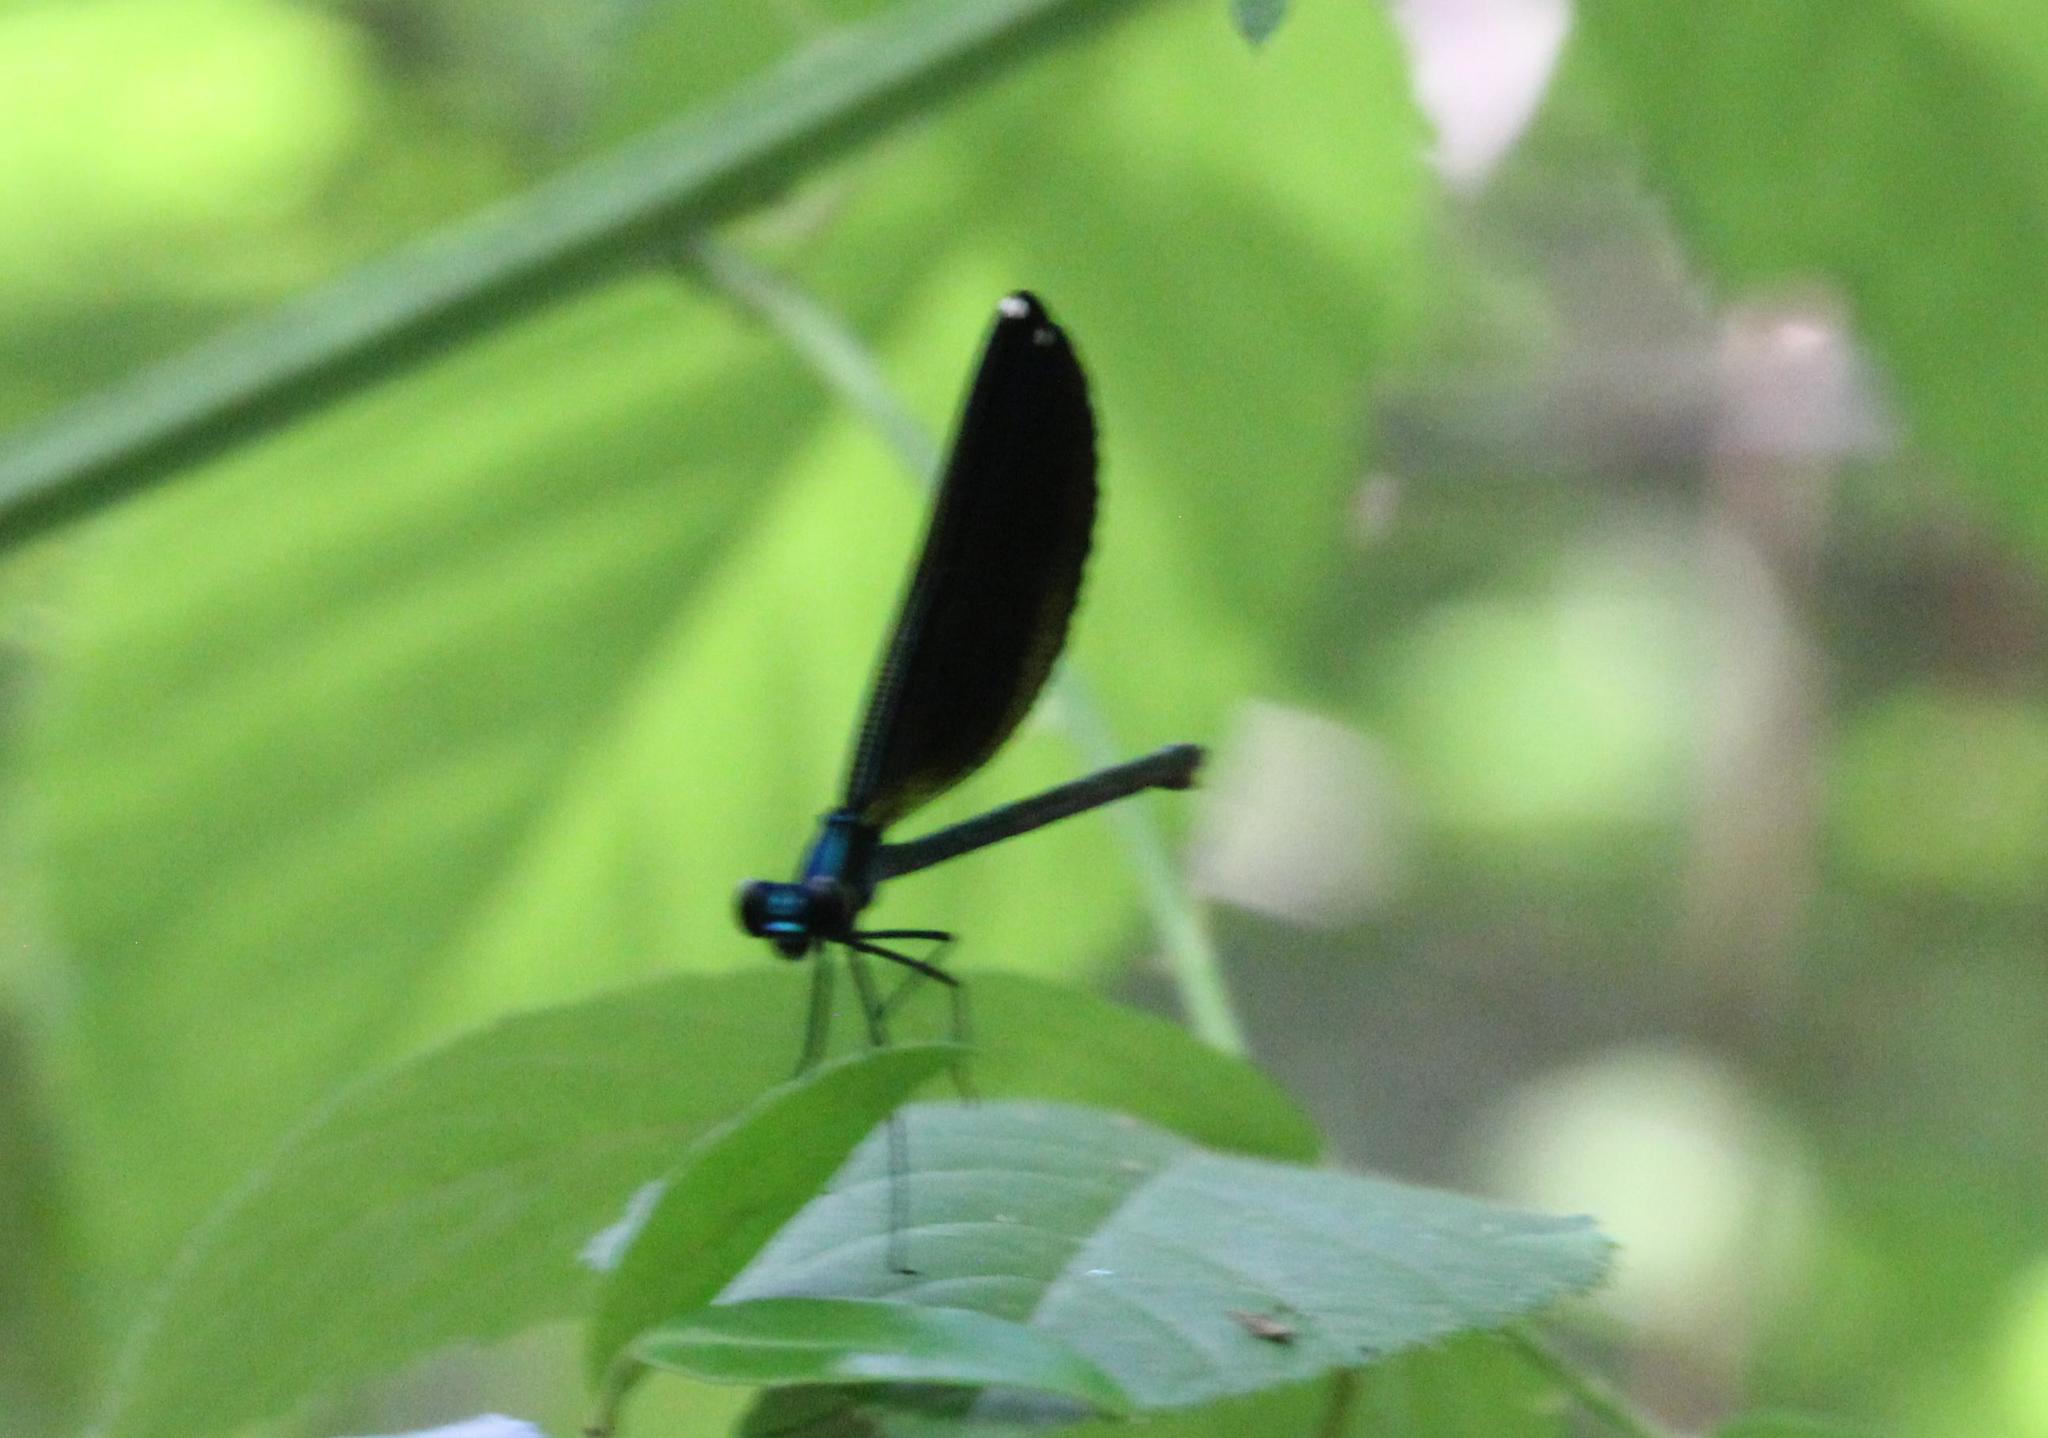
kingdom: Animalia
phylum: Arthropoda
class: Insecta
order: Odonata
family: Calopterygidae
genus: Calopteryx
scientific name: Calopteryx maculata
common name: Ebony jewelwing
